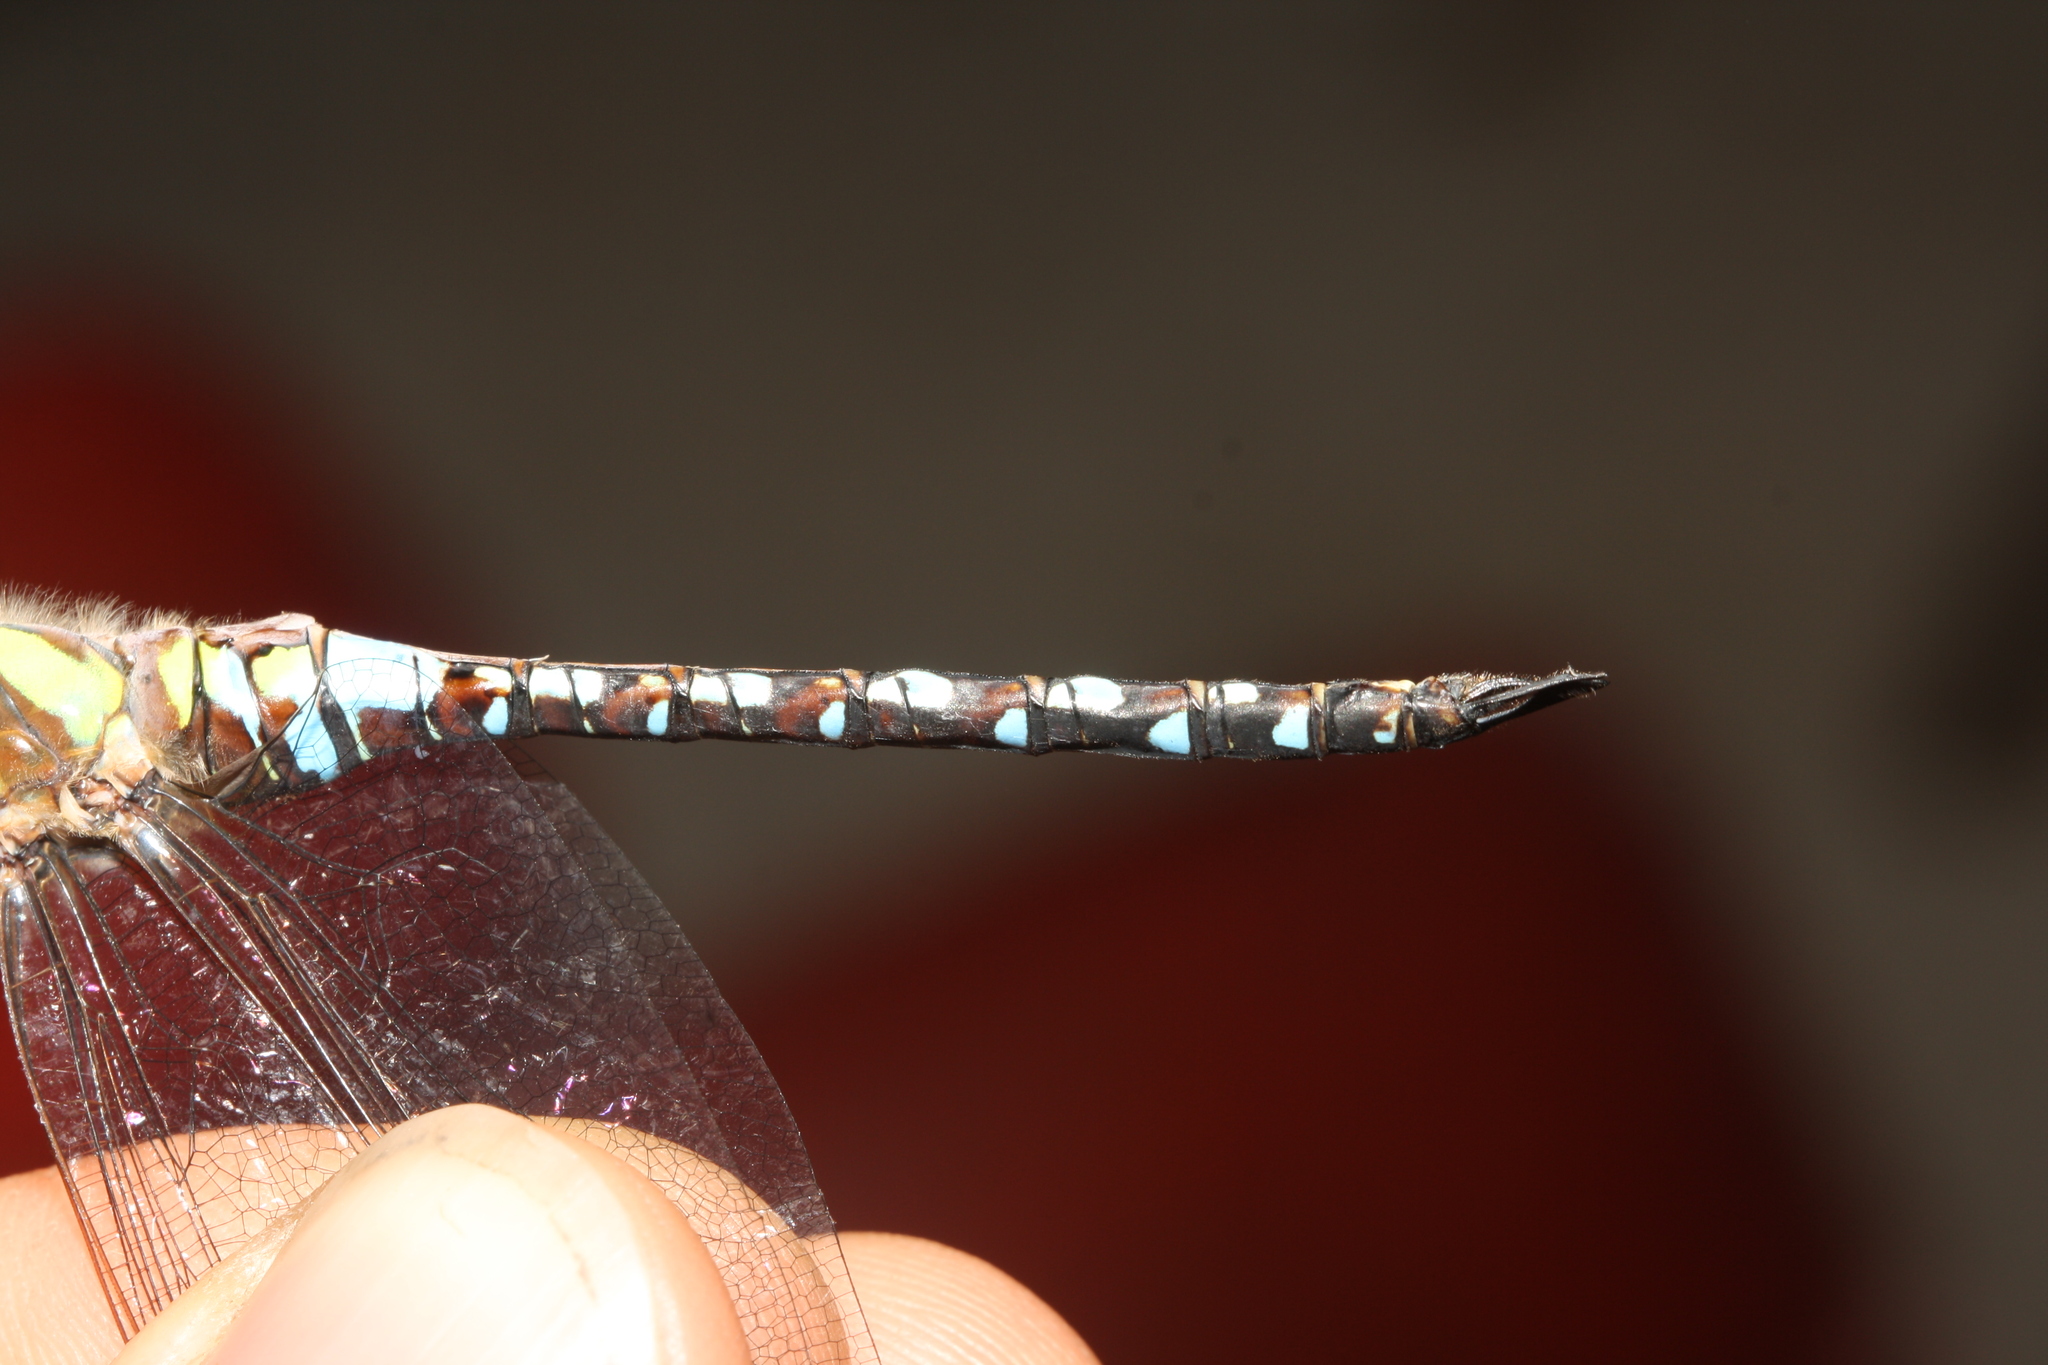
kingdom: Animalia
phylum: Arthropoda
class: Insecta
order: Odonata
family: Aeshnidae
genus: Aeshna
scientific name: Aeshna mixta
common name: Migrant hawker
